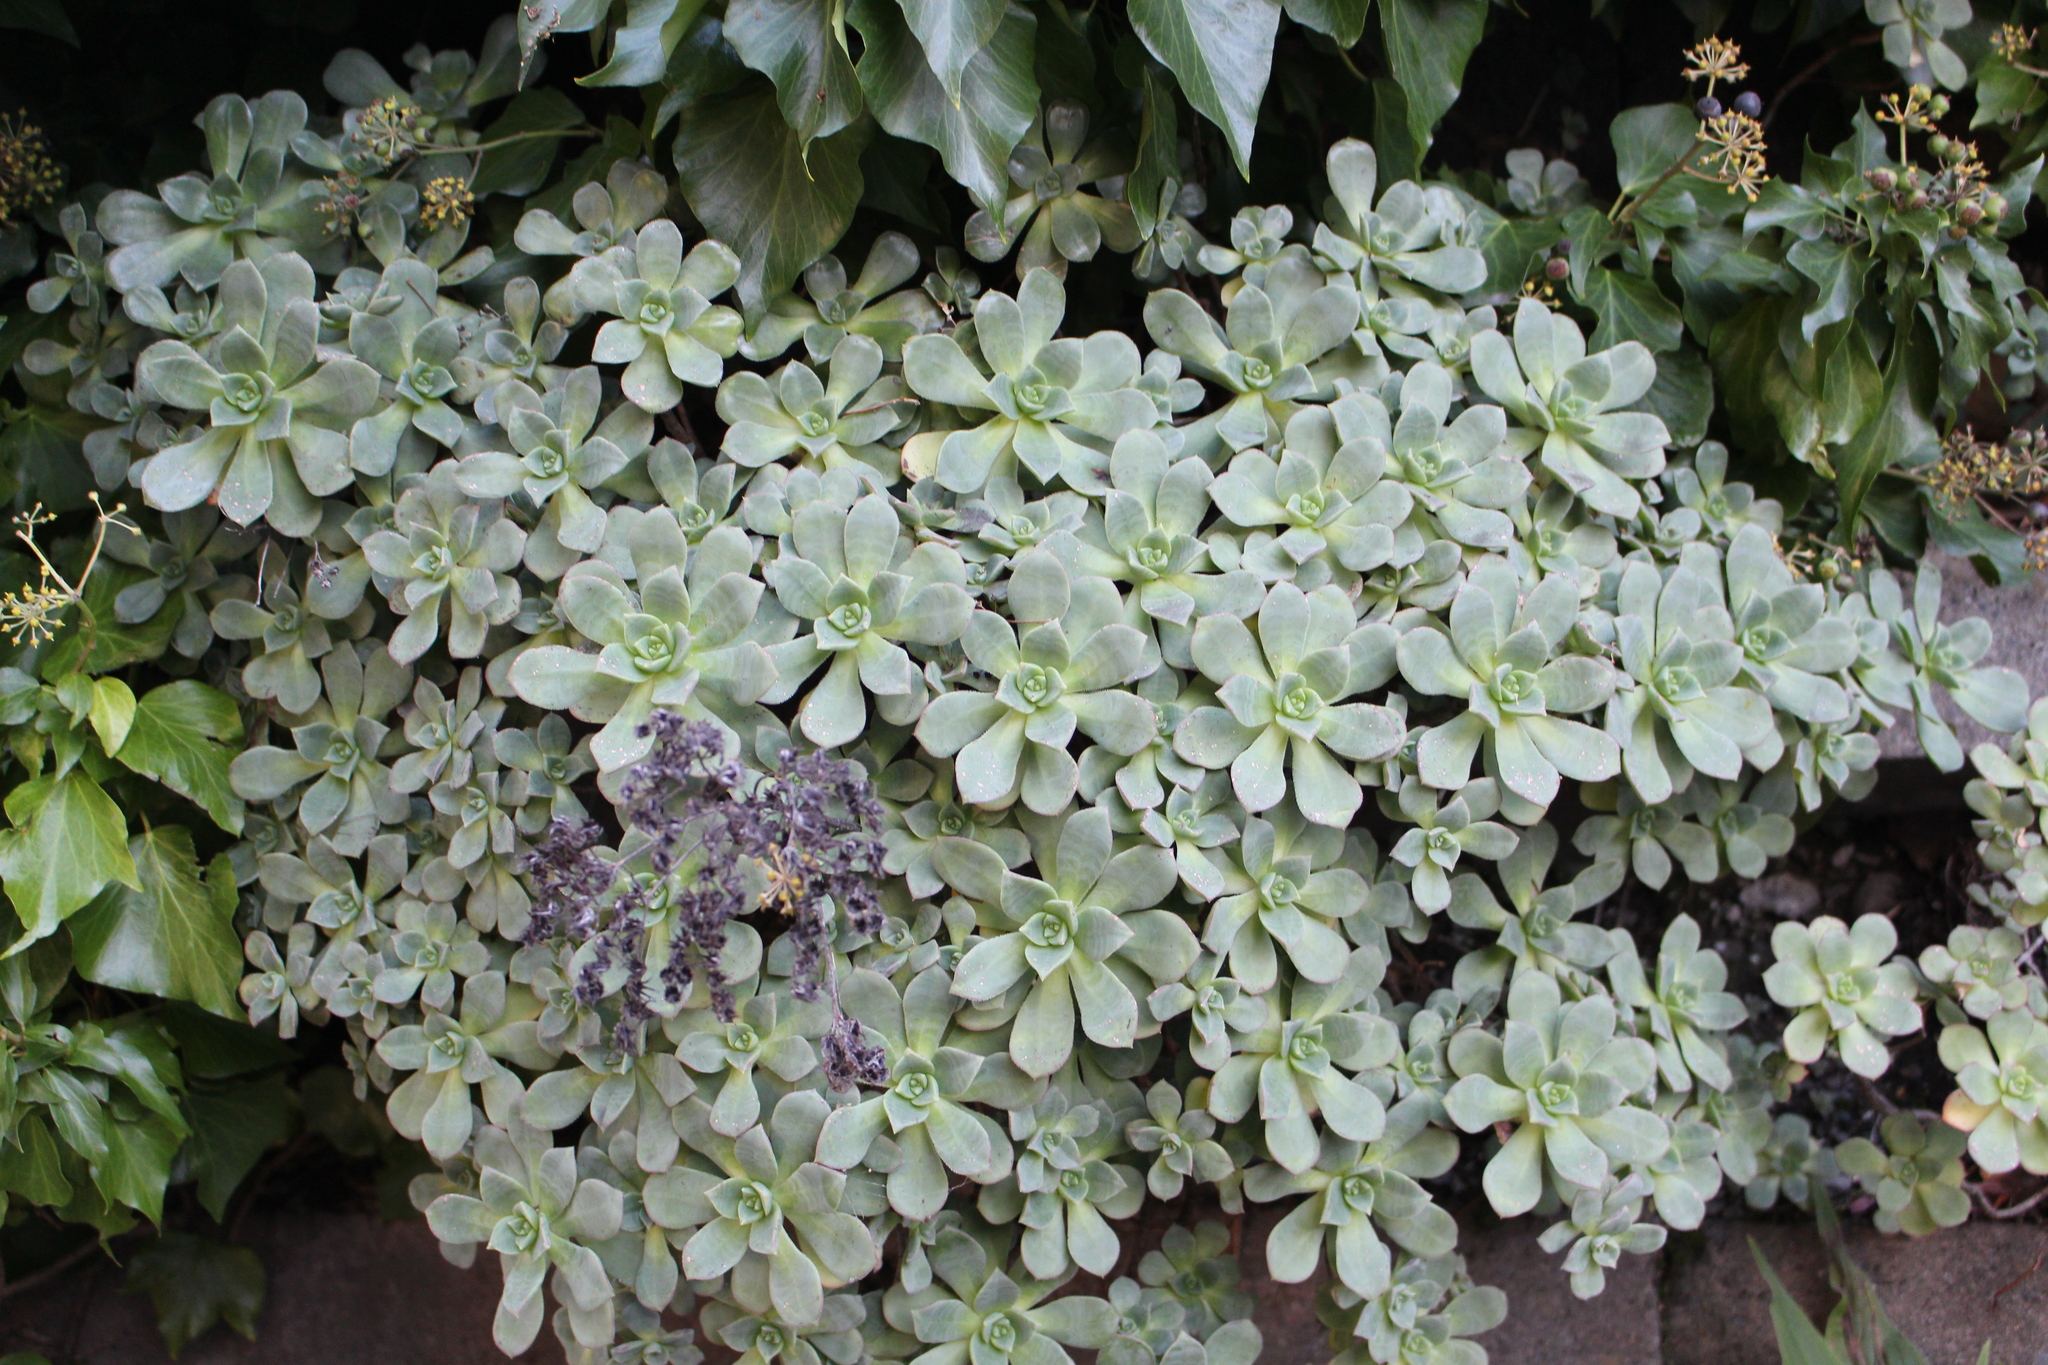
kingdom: Plantae
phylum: Tracheophyta
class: Magnoliopsida
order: Saxifragales
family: Crassulaceae
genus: Aeonium
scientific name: Aeonium haworthii
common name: Haworth's aeonium
